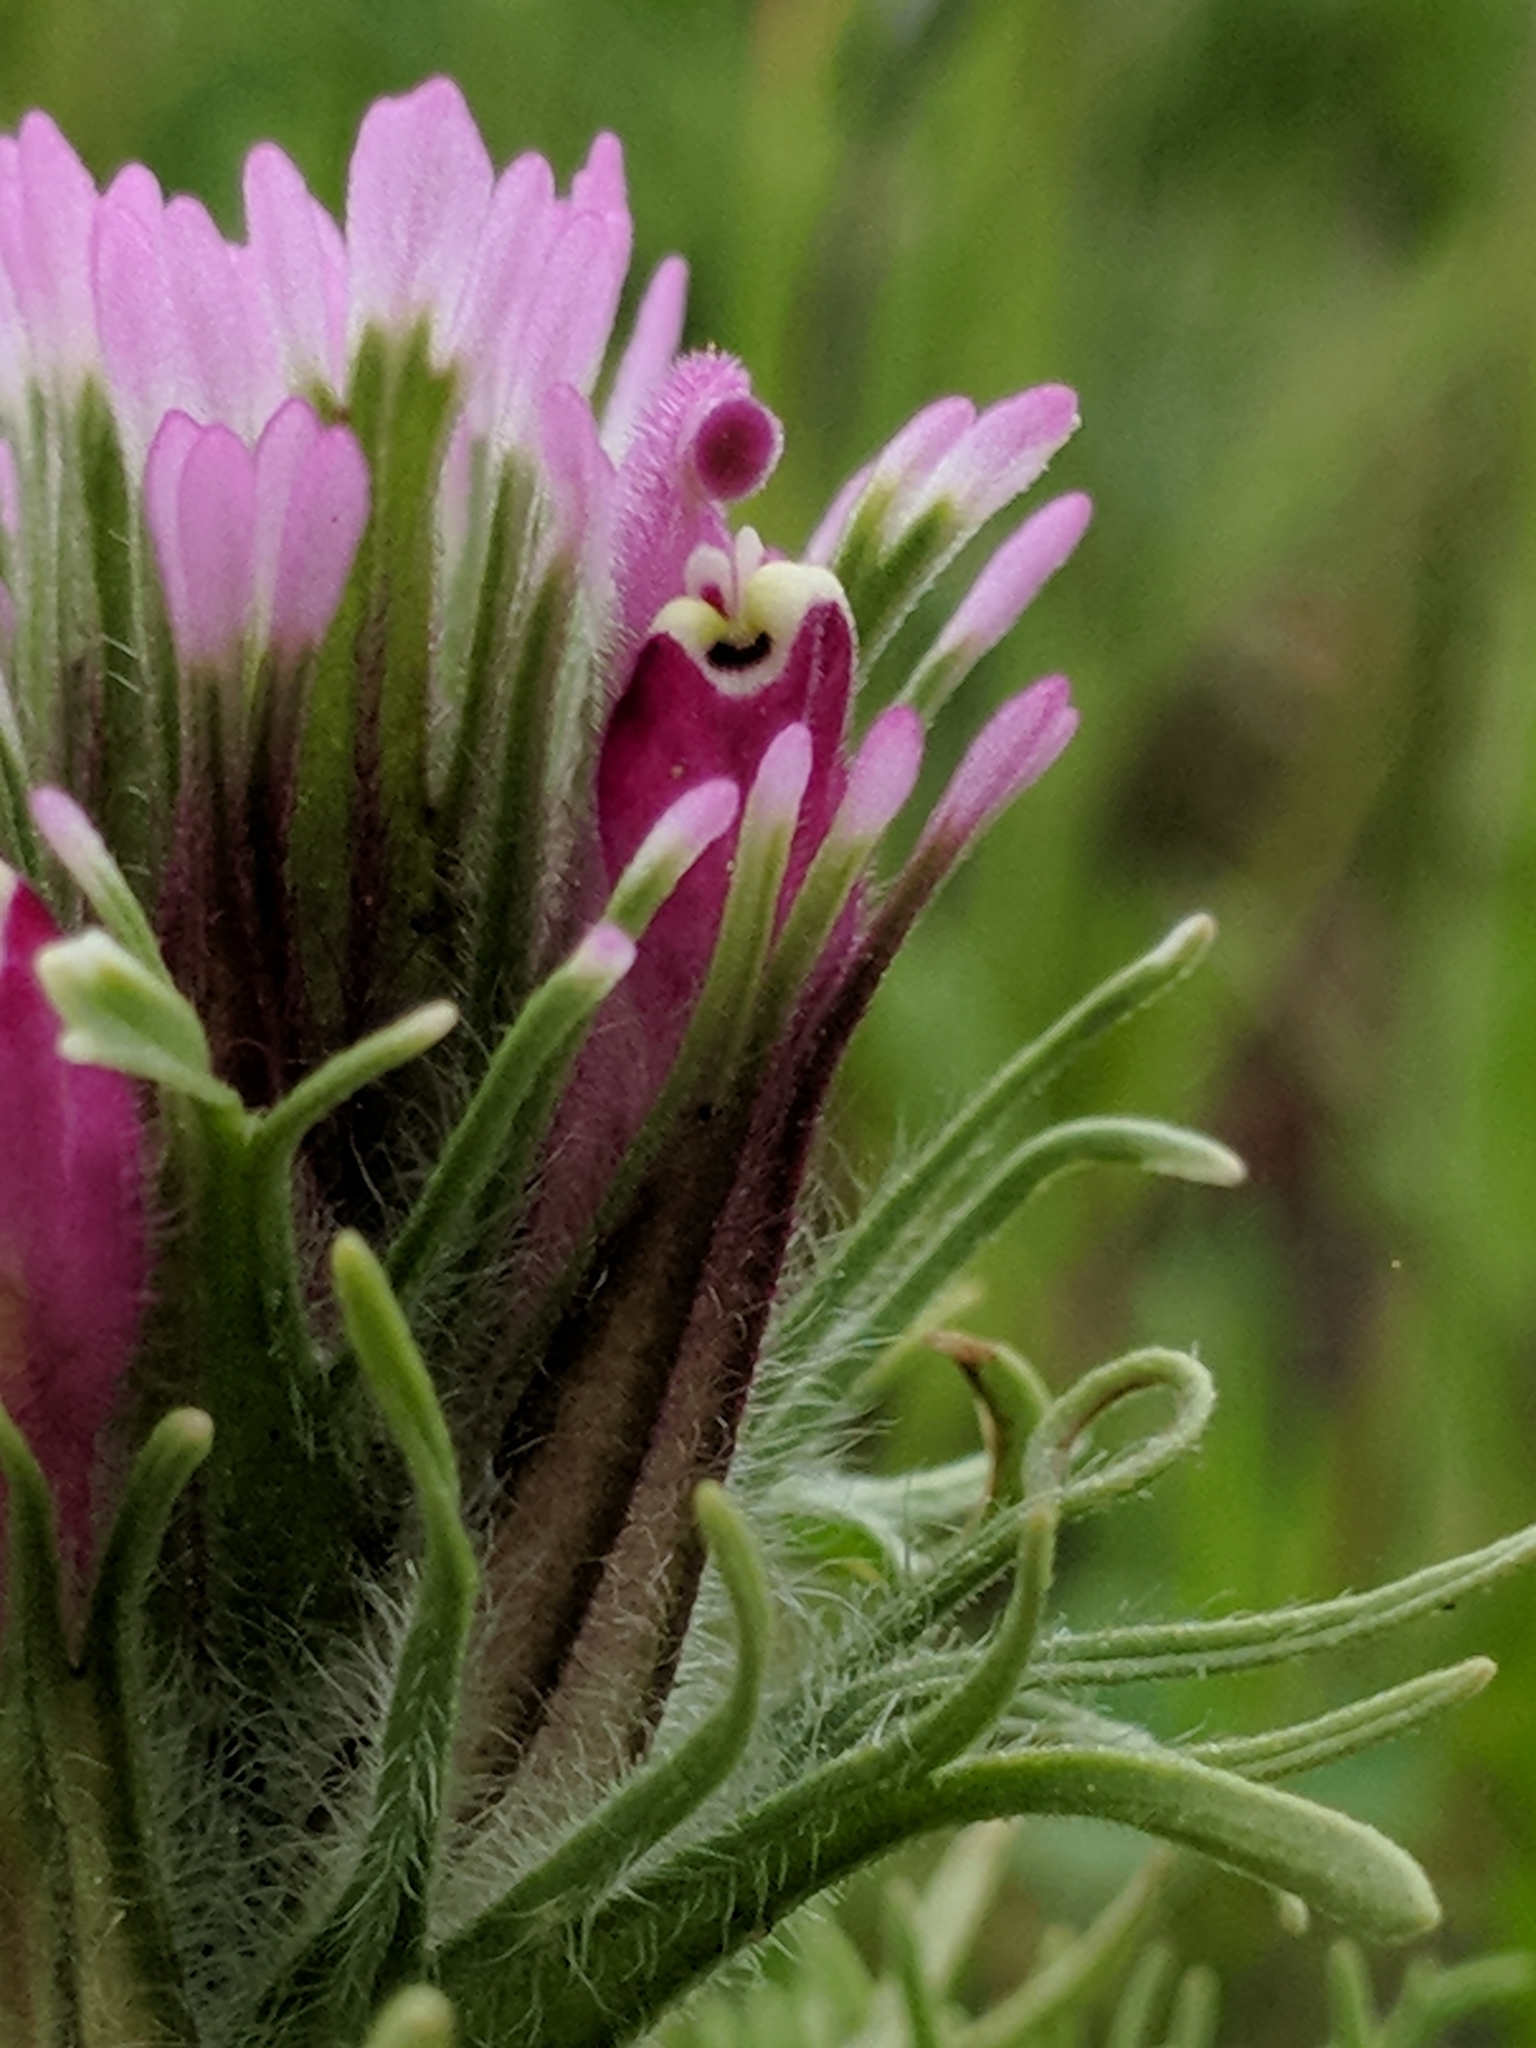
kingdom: Plantae
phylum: Tracheophyta
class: Magnoliopsida
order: Lamiales
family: Orobanchaceae
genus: Castilleja
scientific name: Castilleja exserta
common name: Purple owl-clover
